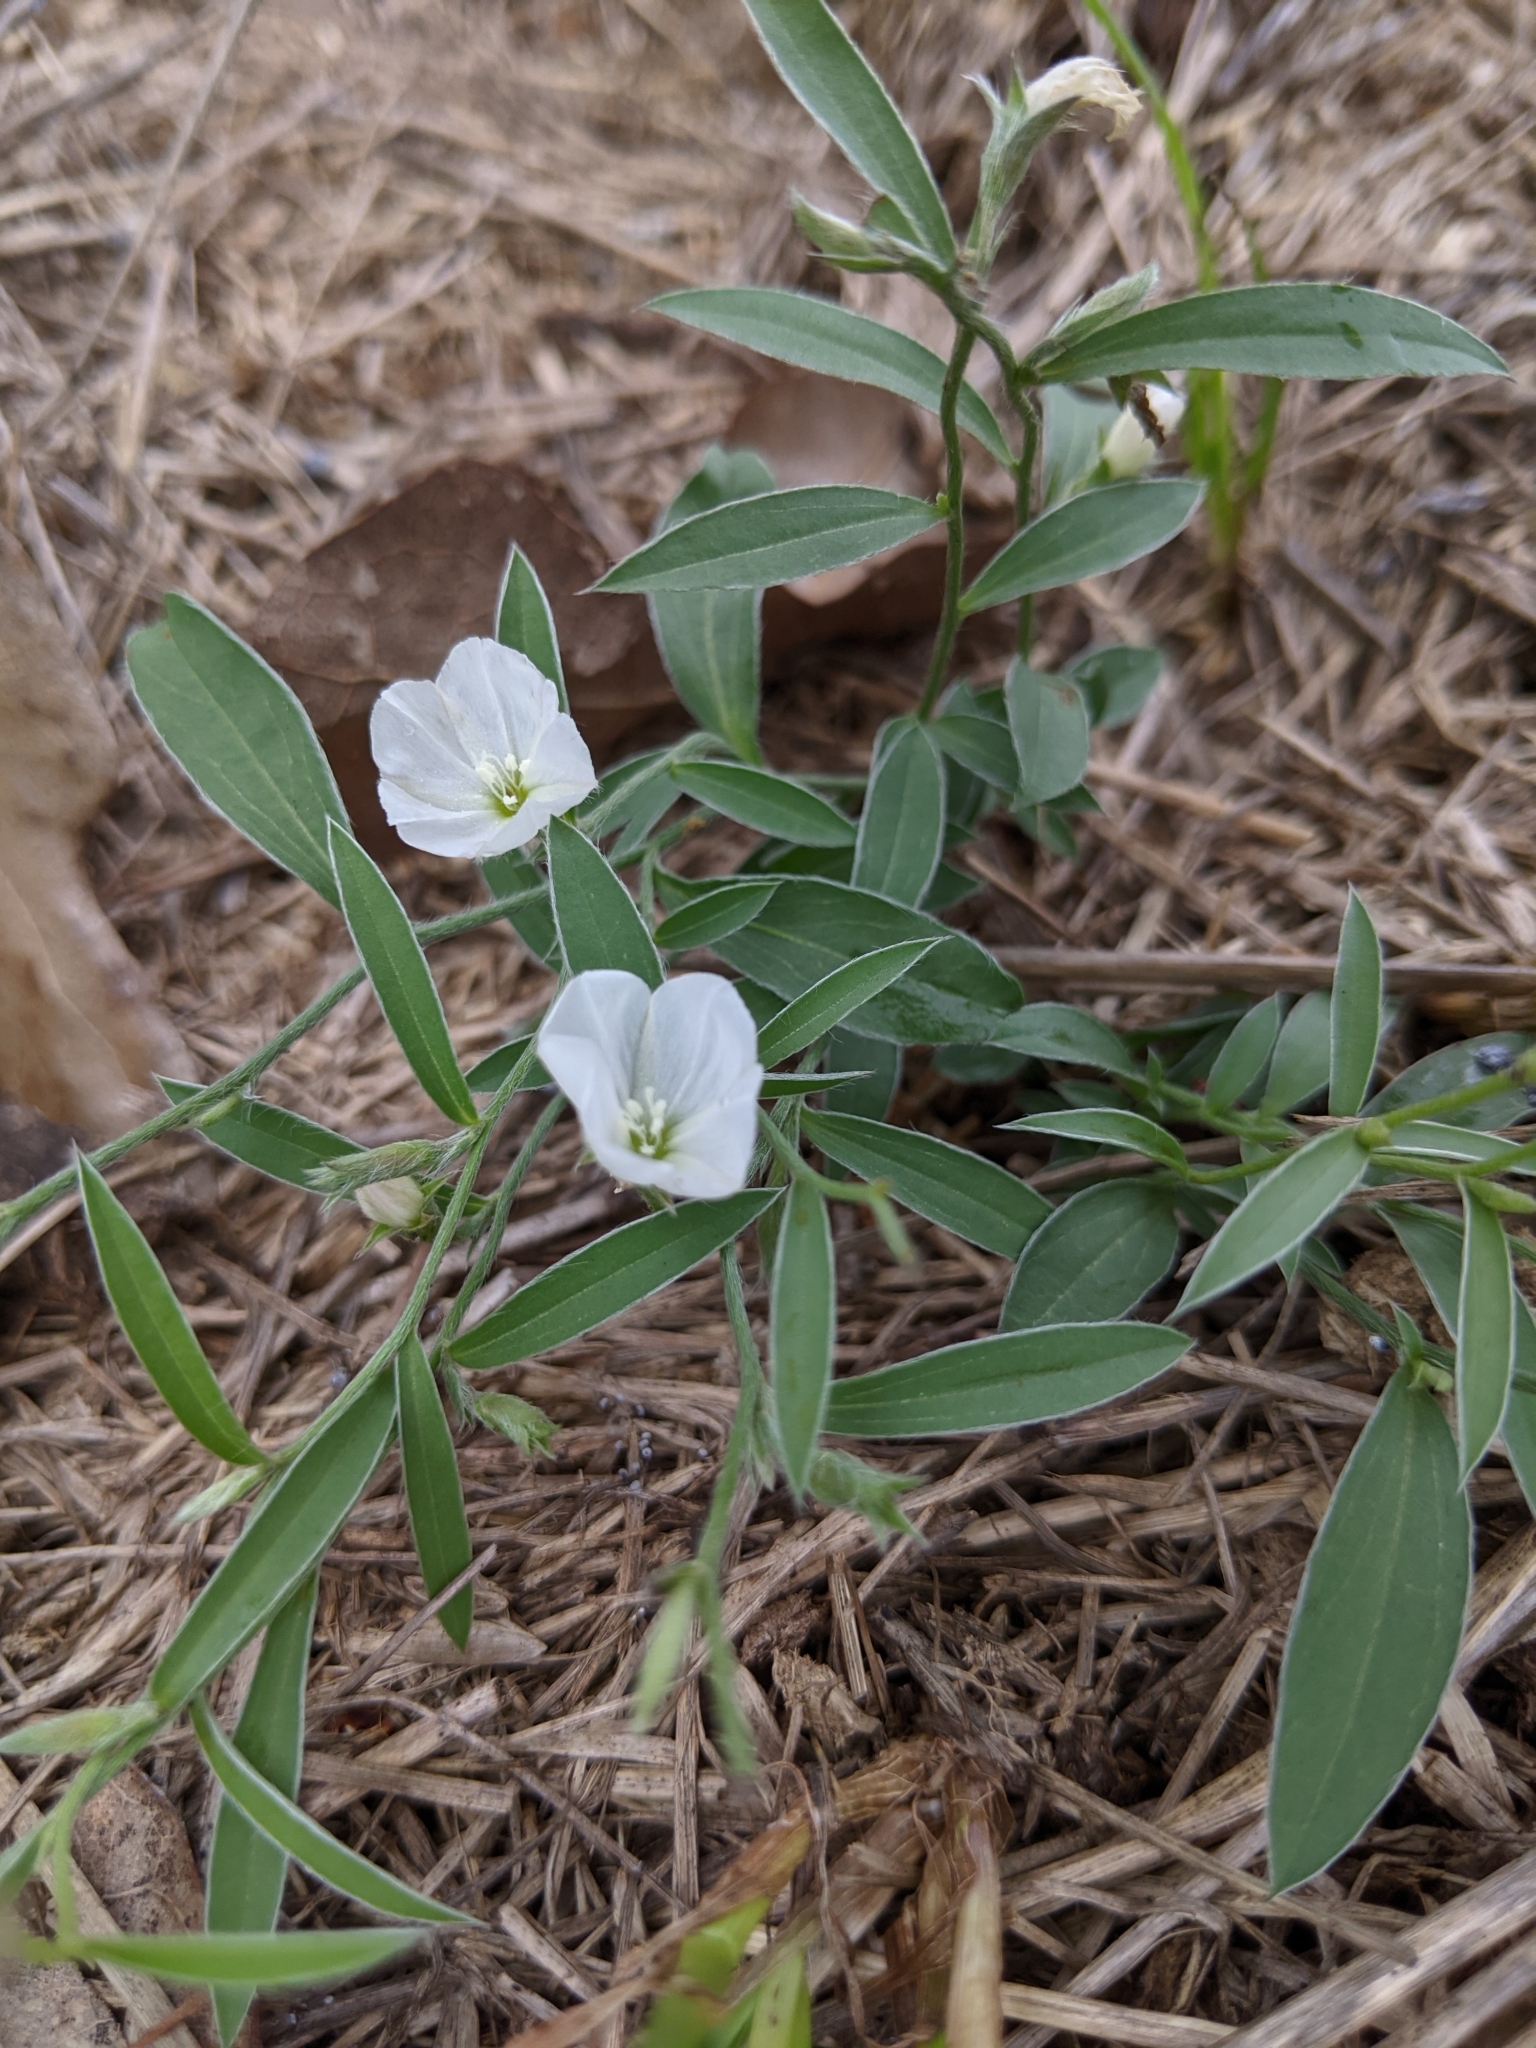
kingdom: Plantae
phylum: Tracheophyta
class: Magnoliopsida
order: Solanales
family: Convolvulaceae
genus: Evolvulus
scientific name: Evolvulus sericeus
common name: Blue dots
